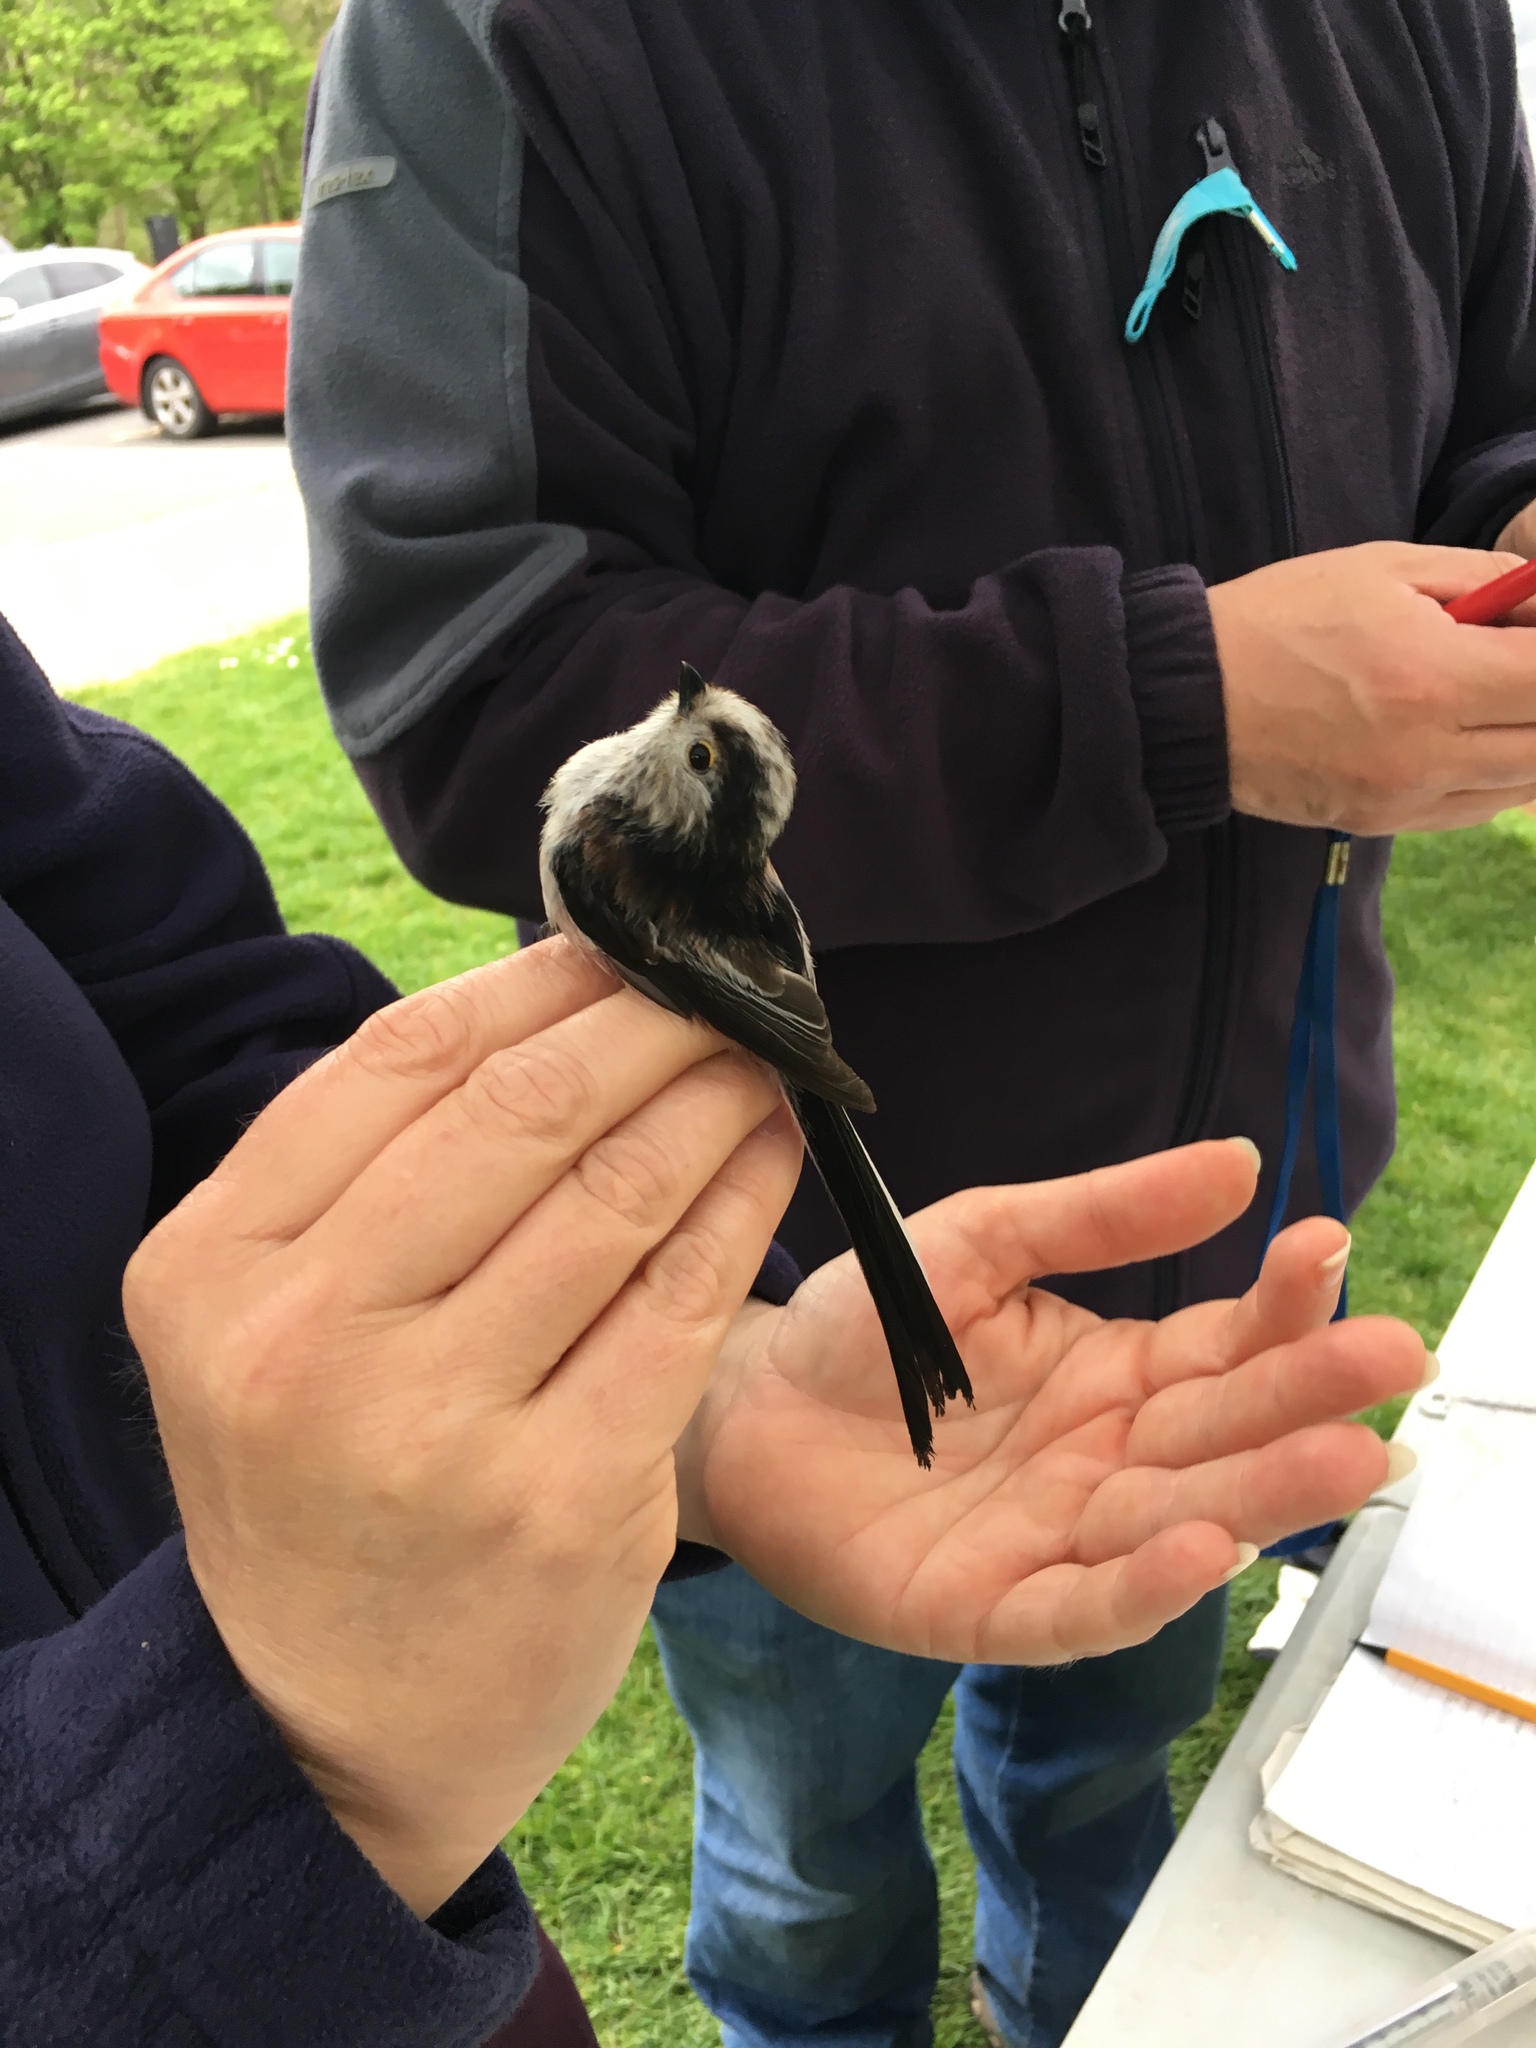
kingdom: Animalia
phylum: Chordata
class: Aves
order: Passeriformes
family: Aegithalidae
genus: Aegithalos
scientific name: Aegithalos caudatus
